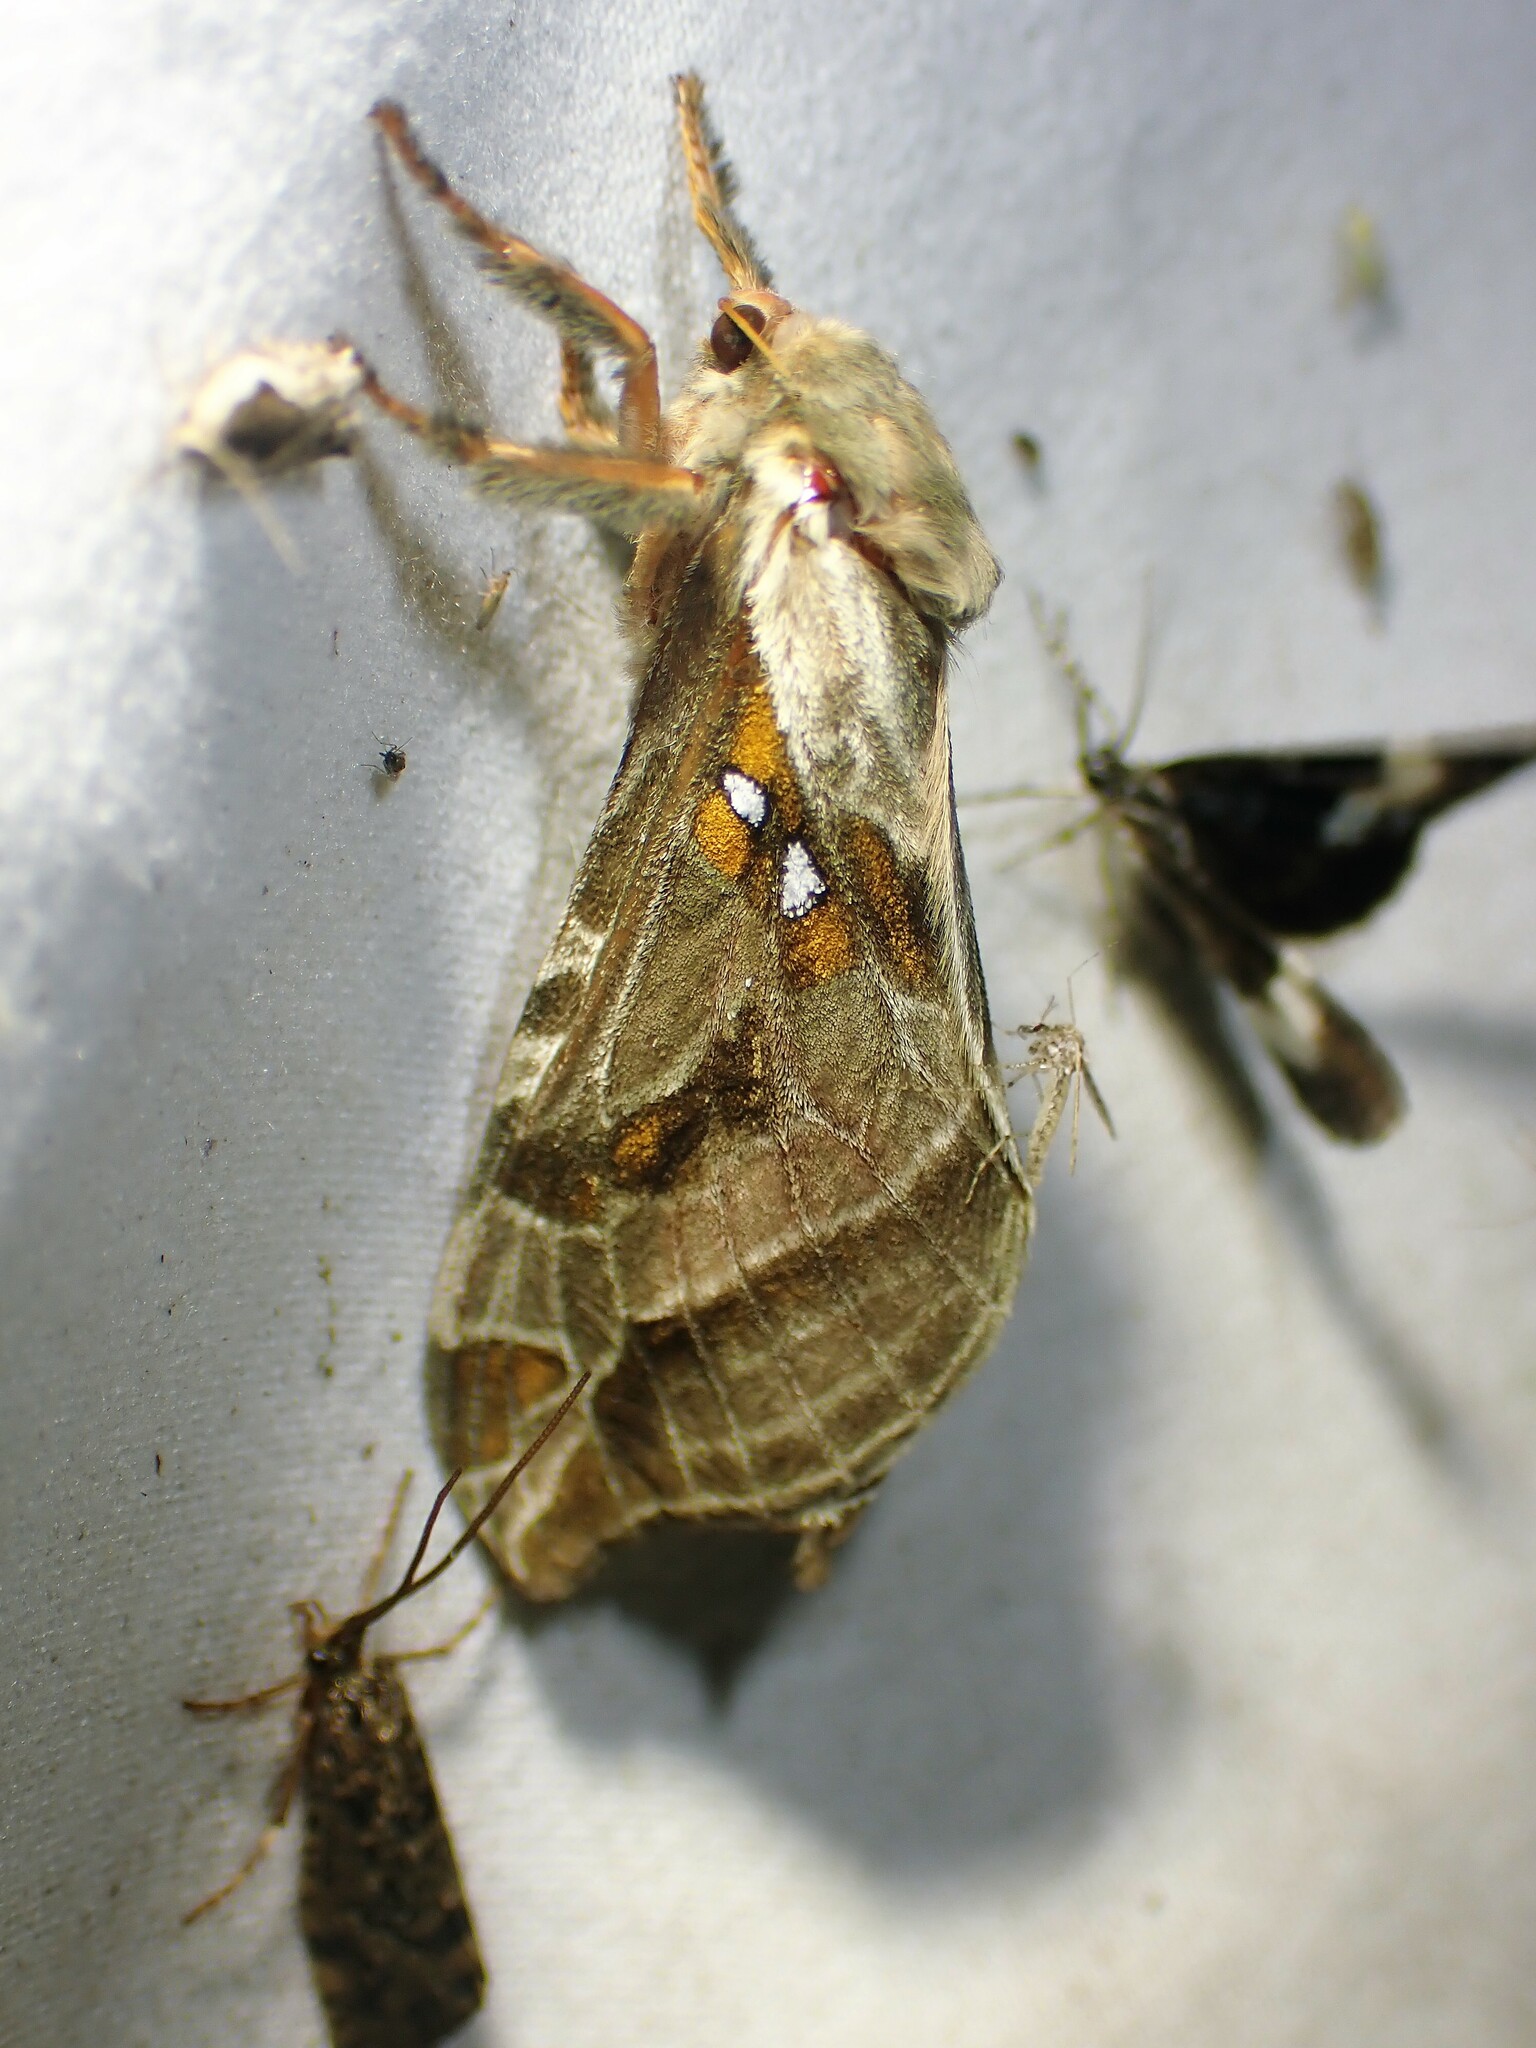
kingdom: Animalia
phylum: Arthropoda
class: Insecta
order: Lepidoptera
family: Hepialidae
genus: Sthenopis
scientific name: Sthenopis argenteomaculatus
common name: Silver-spotted ghost moth
